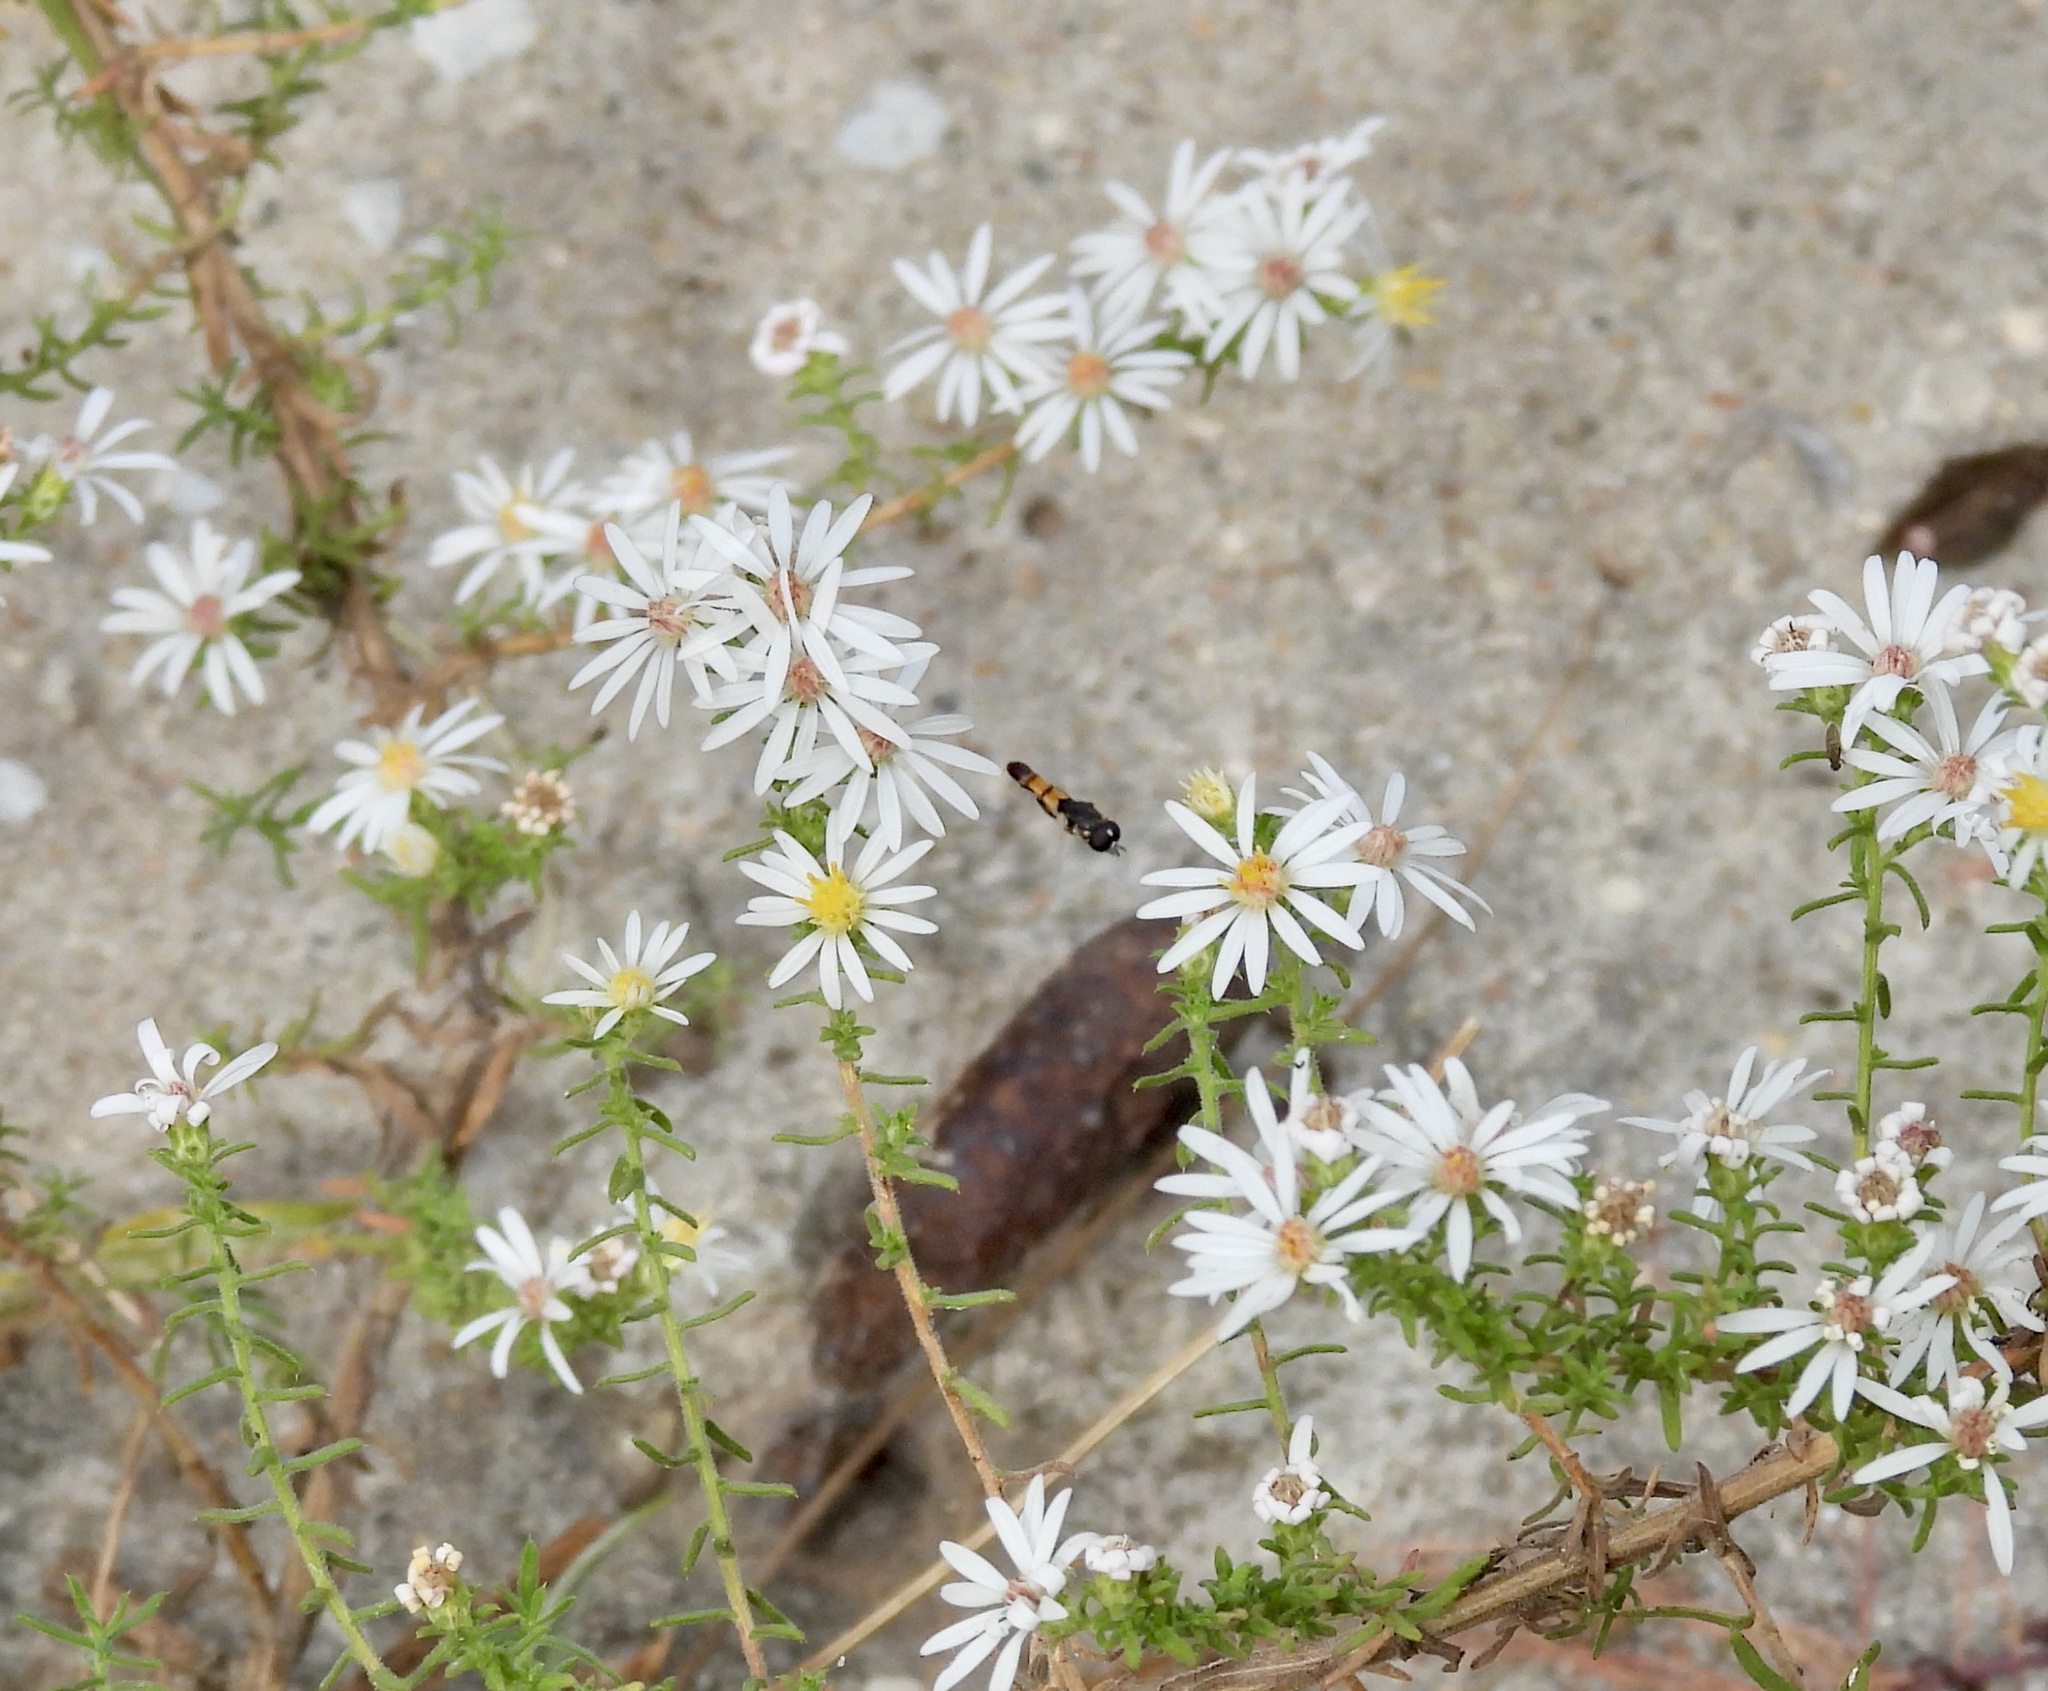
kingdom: Animalia
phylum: Arthropoda
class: Insecta
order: Diptera
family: Syrphidae
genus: Syritta
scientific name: Syritta flaviventris
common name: Syrphid fly
